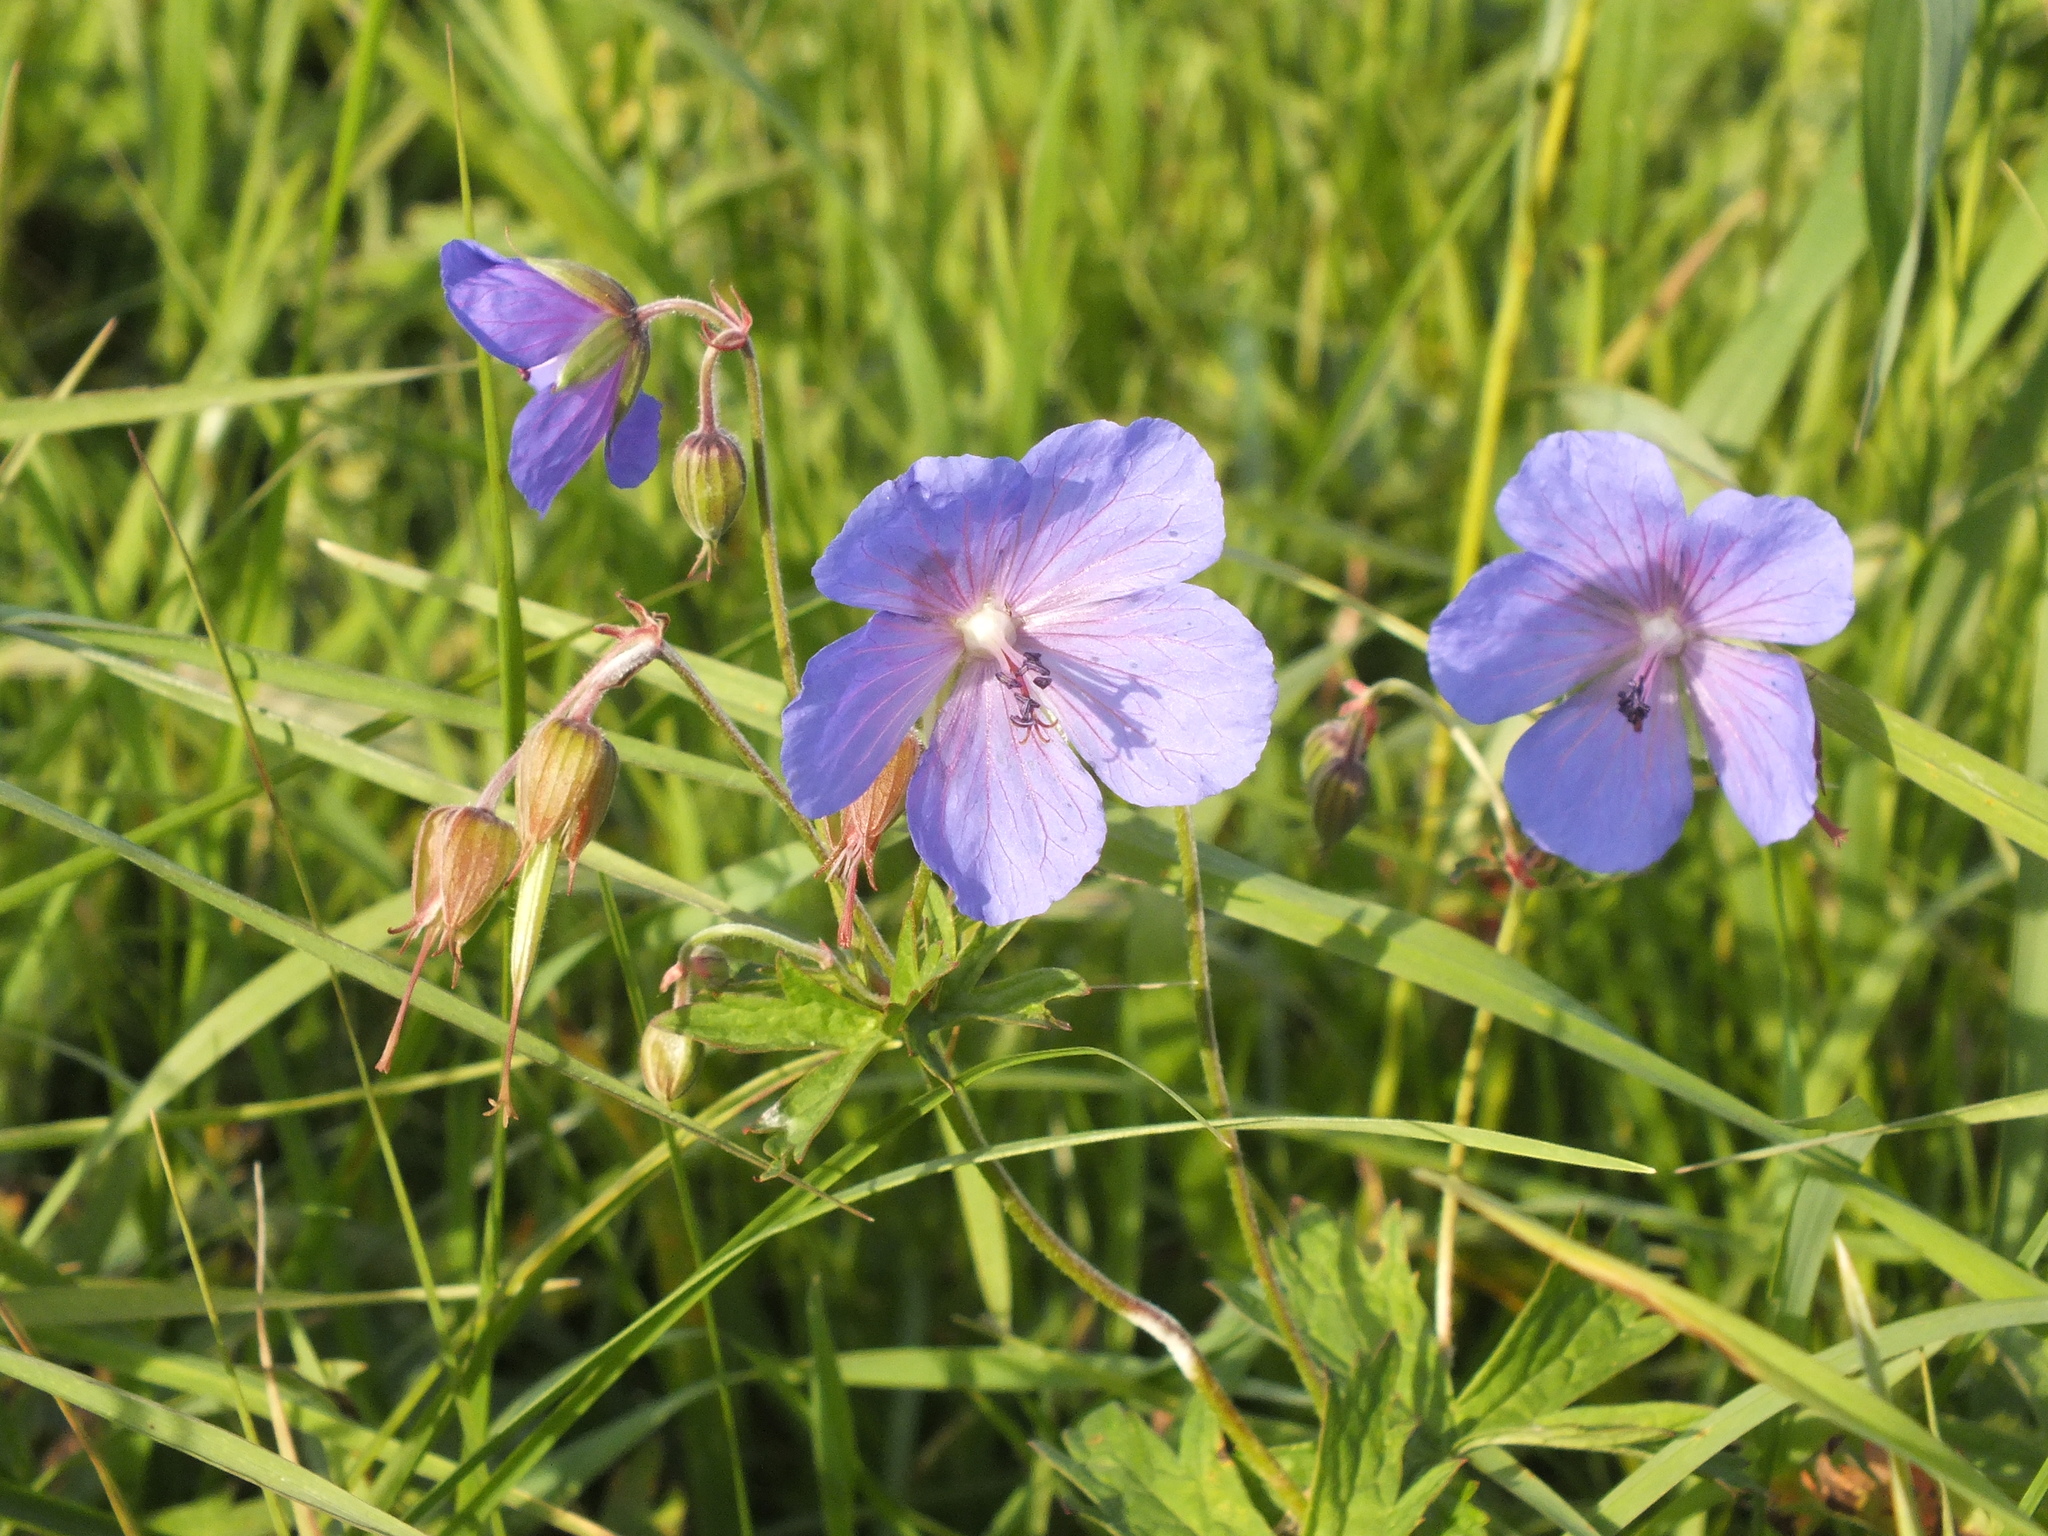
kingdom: Plantae
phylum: Tracheophyta
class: Magnoliopsida
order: Geraniales
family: Geraniaceae
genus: Geranium
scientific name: Geranium pratense
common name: Meadow crane's-bill
